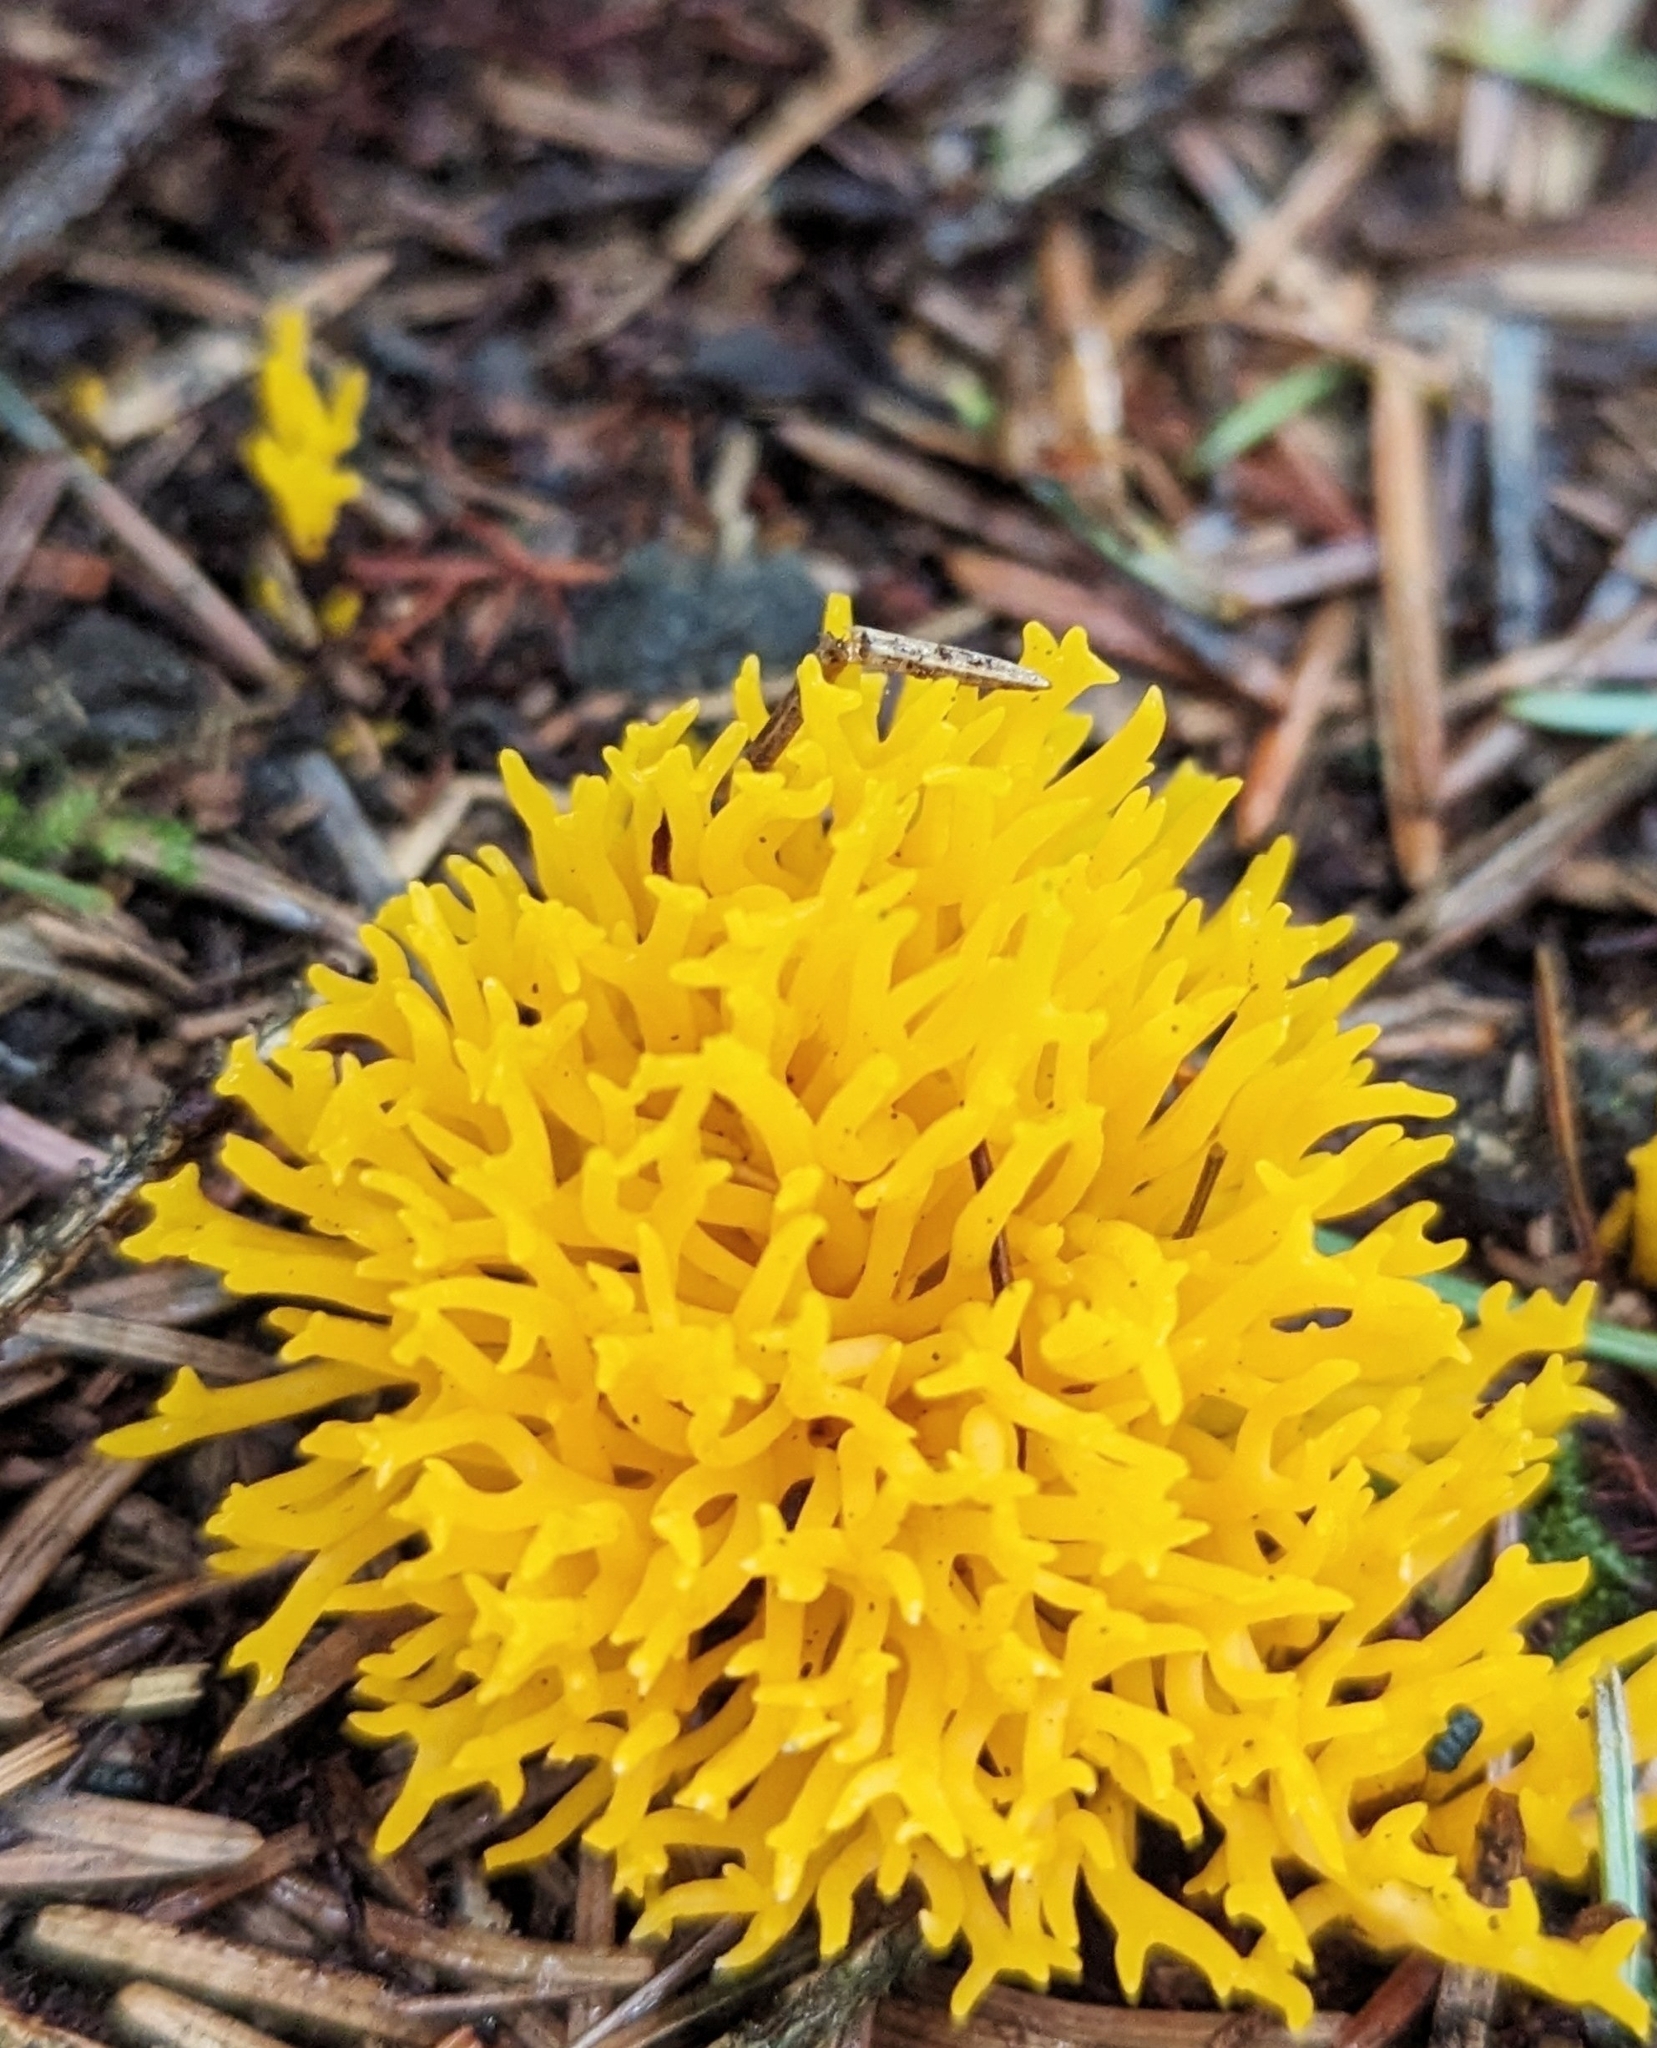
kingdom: Fungi
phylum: Basidiomycota
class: Dacrymycetes
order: Dacrymycetales
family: Dacrymycetaceae
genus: Calocera
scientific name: Calocera viscosa
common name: Yellow stagshorn
